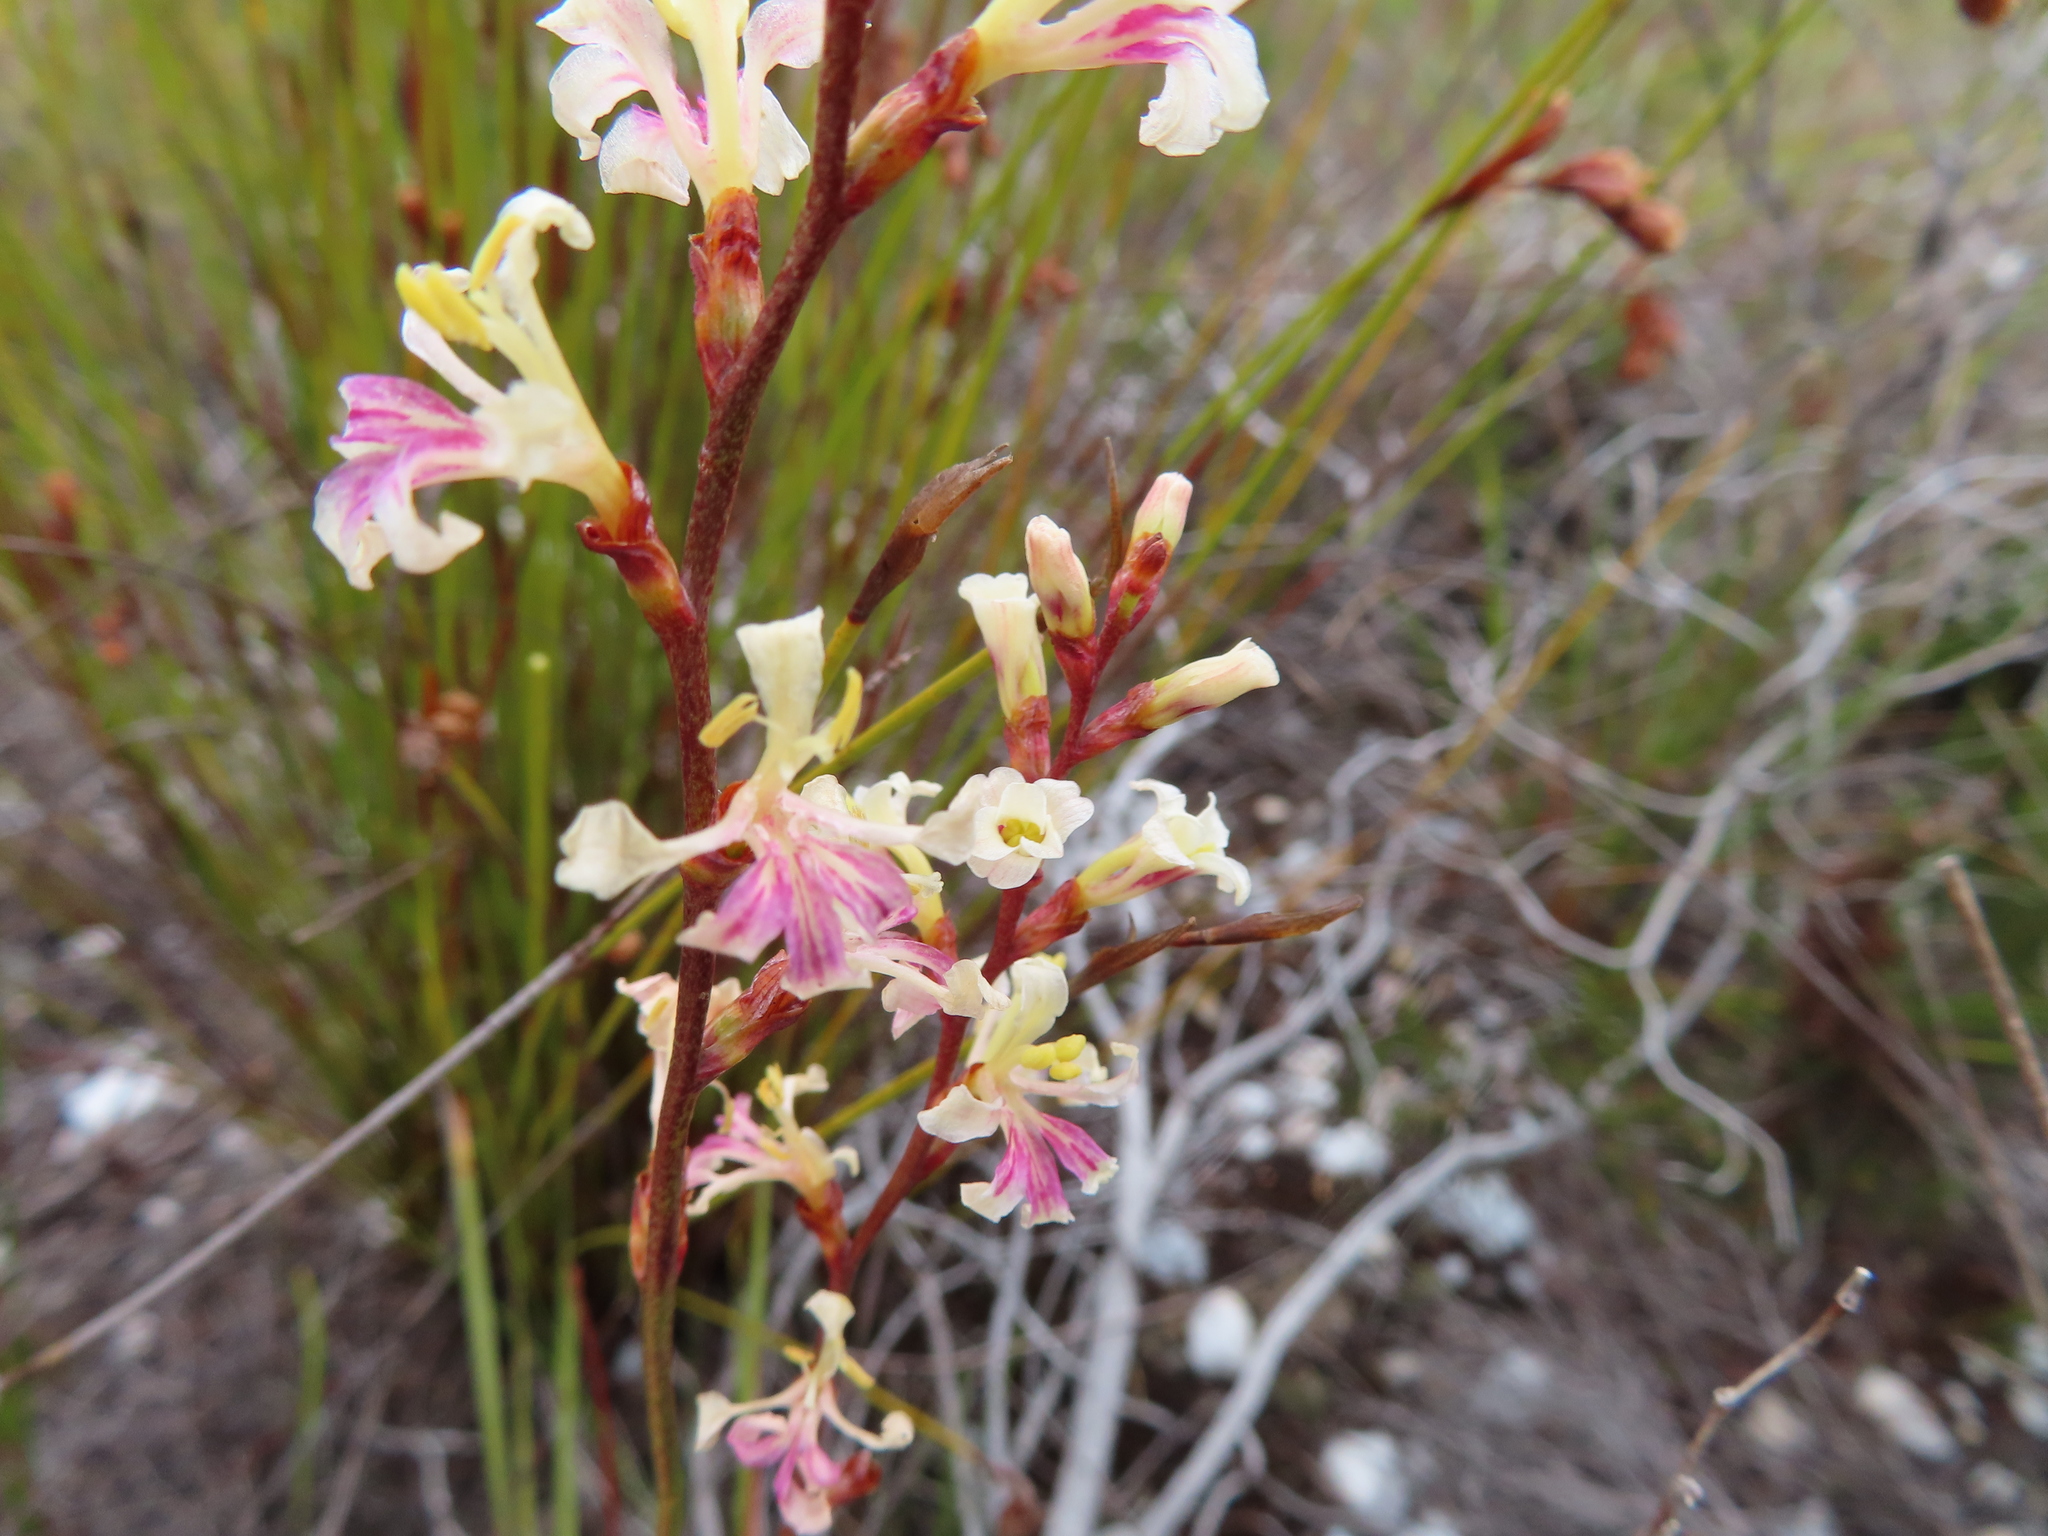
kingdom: Plantae
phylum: Tracheophyta
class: Liliopsida
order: Asparagales
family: Iridaceae
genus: Tritoniopsis
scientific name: Tritoniopsis unguicularis
